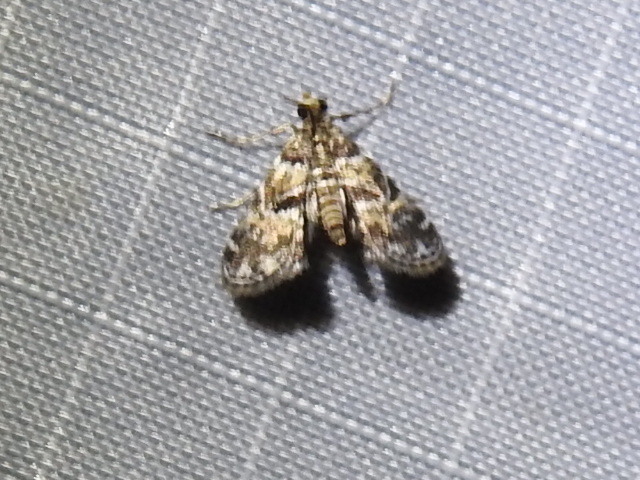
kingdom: Animalia
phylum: Arthropoda
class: Insecta
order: Lepidoptera
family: Crambidae
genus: Elophila
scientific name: Elophila obliteralis
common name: Waterlily leafcutter moth
